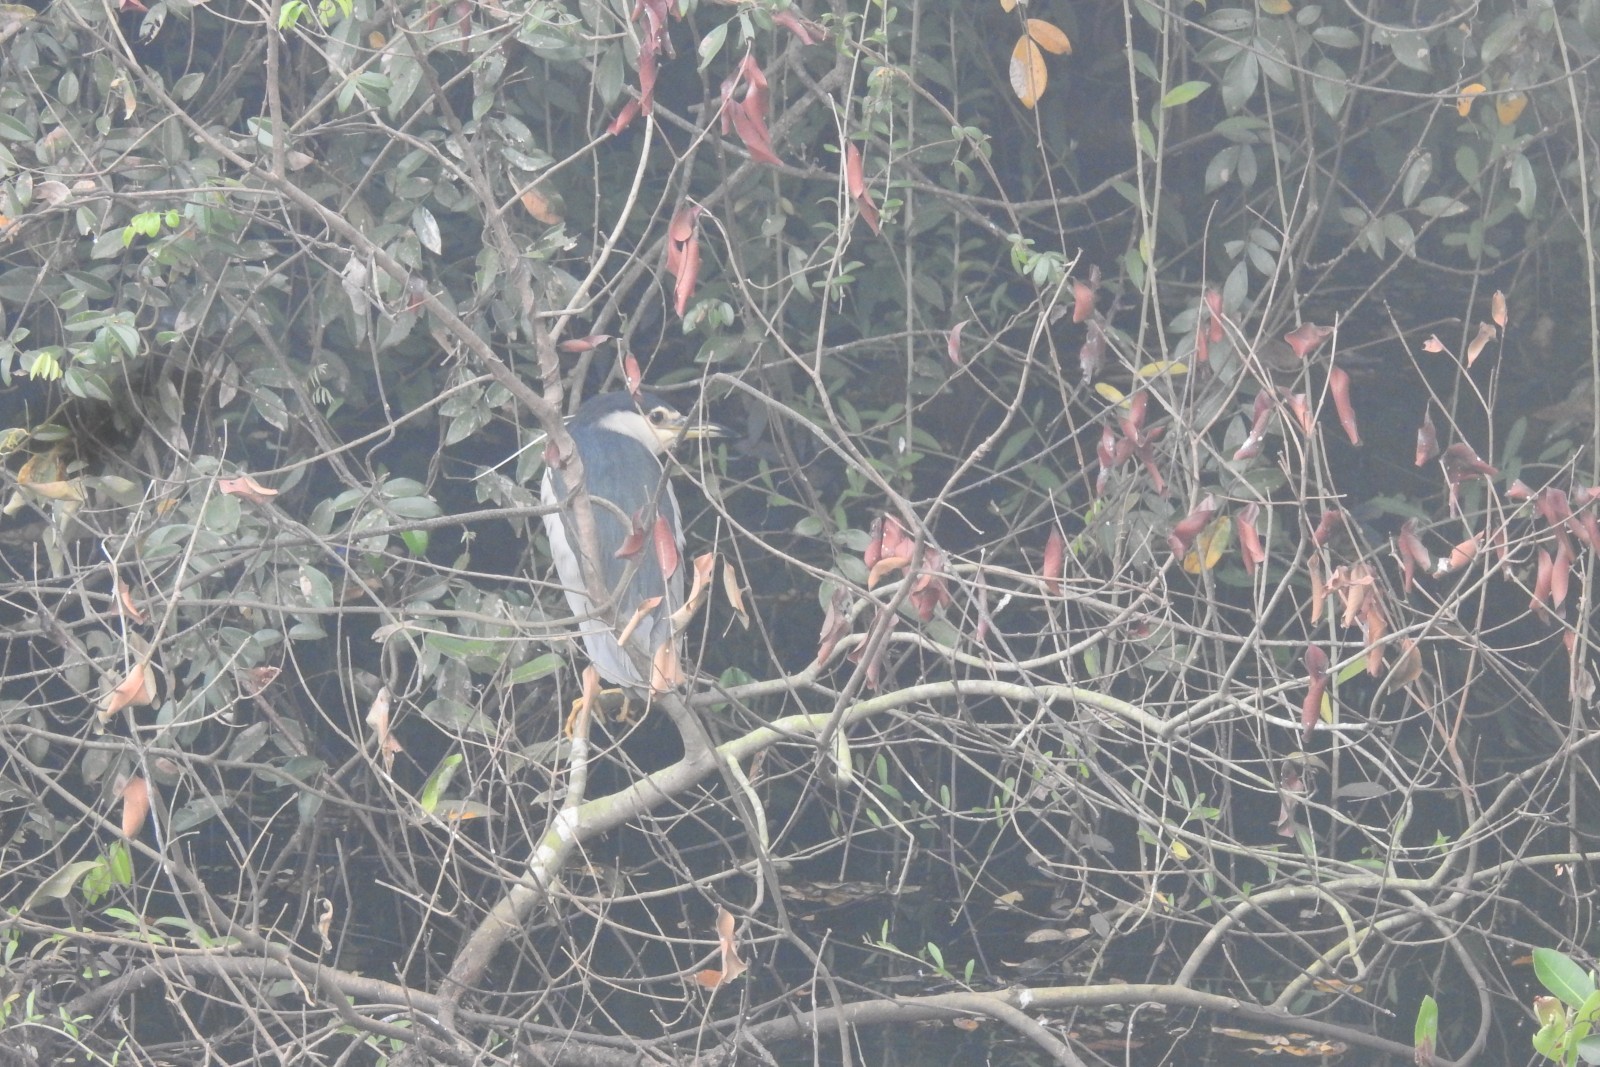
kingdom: Animalia
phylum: Chordata
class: Aves
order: Pelecaniformes
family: Ardeidae
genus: Nycticorax
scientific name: Nycticorax nycticorax
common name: Black-crowned night heron
